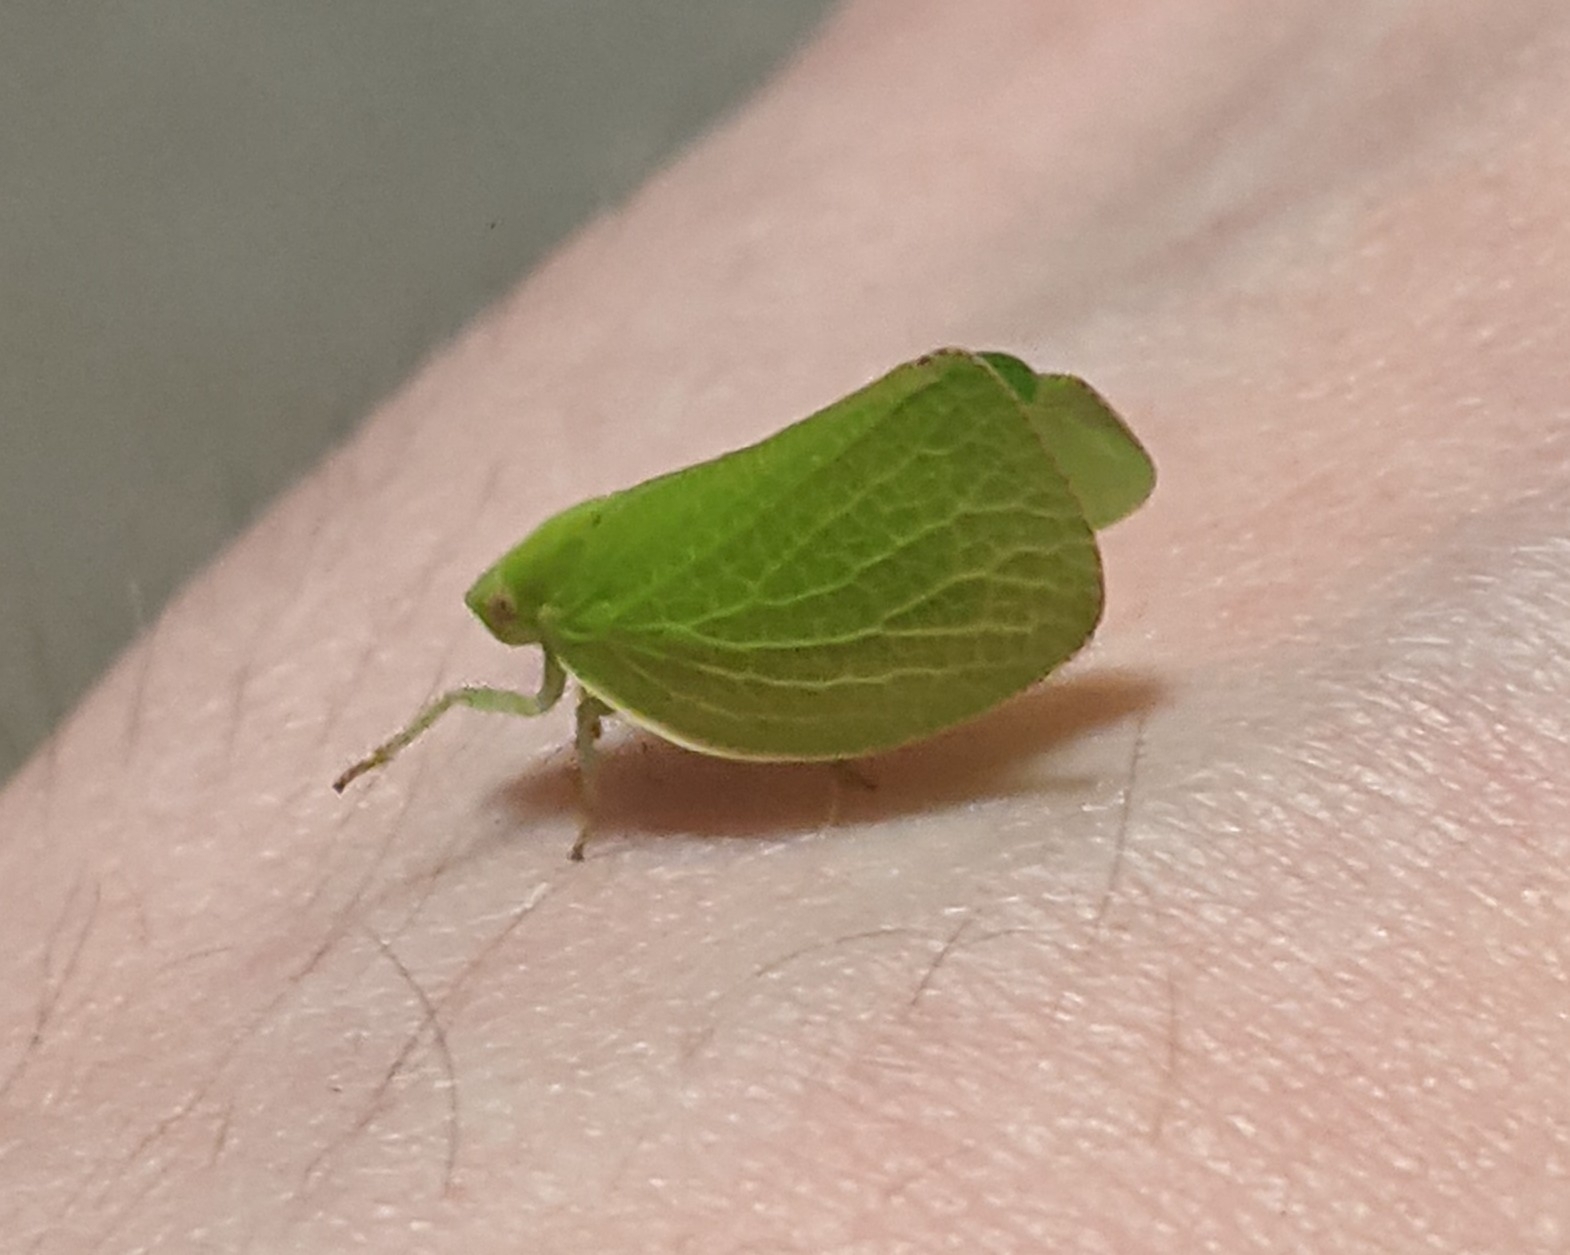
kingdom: Animalia
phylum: Arthropoda
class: Insecta
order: Hemiptera
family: Acanaloniidae
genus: Acanalonia
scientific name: Acanalonia conica
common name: Green cone-headed planthopper
